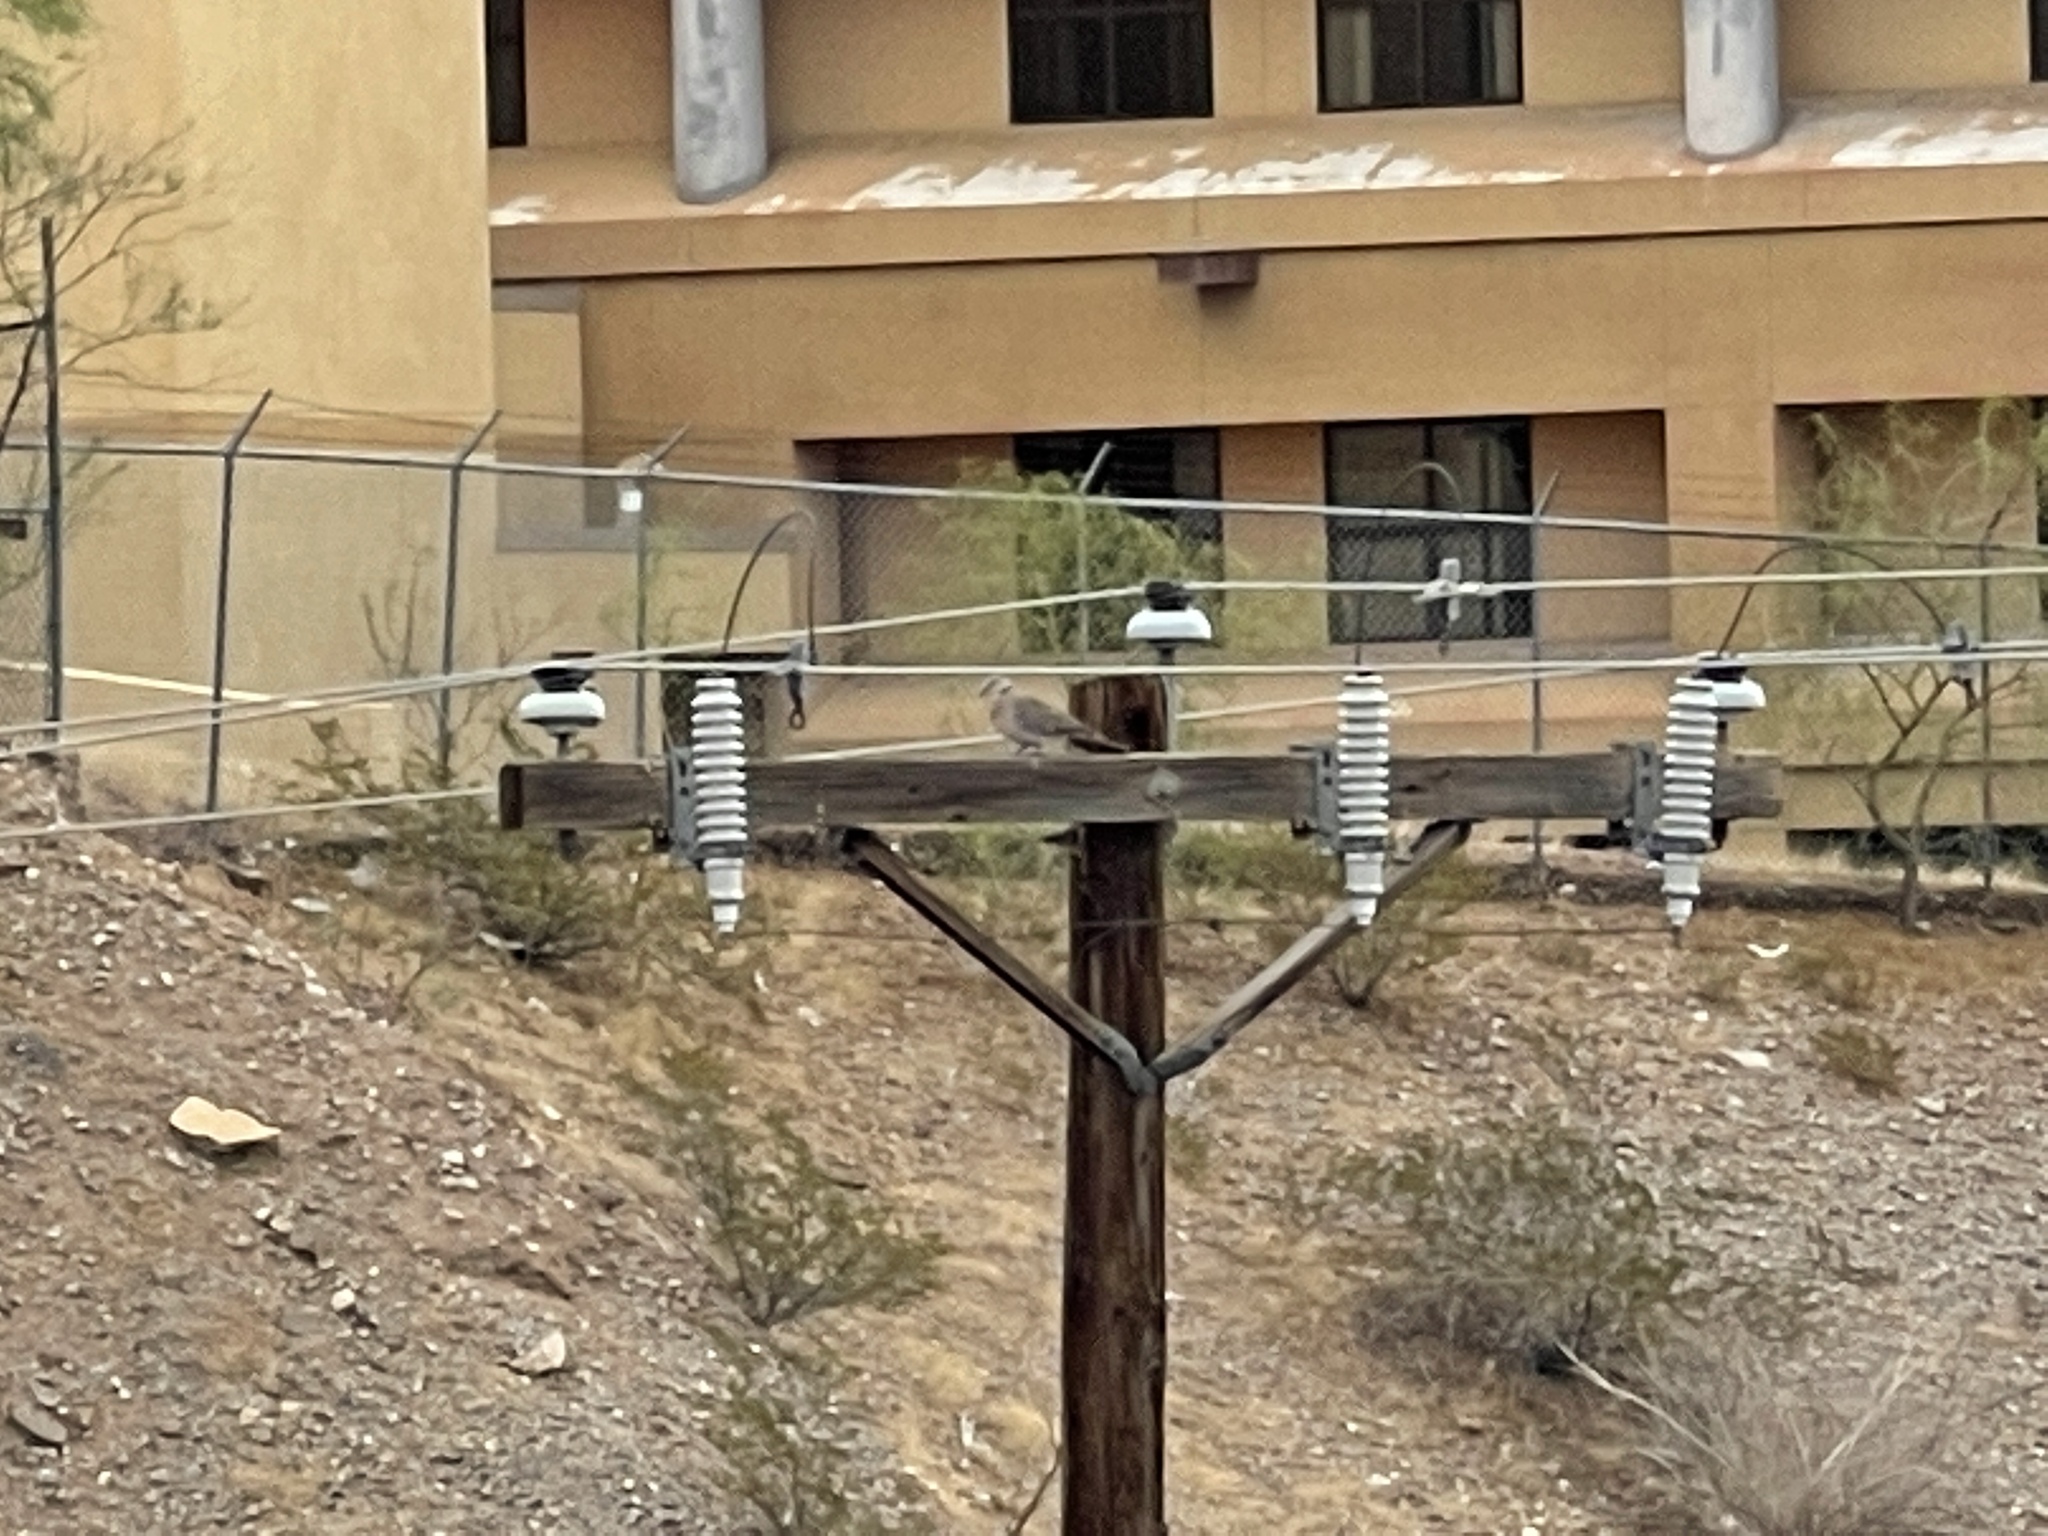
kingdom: Animalia
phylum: Chordata
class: Aves
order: Columbiformes
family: Columbidae
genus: Streptopelia
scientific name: Streptopelia decaocto
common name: Eurasian collared dove
